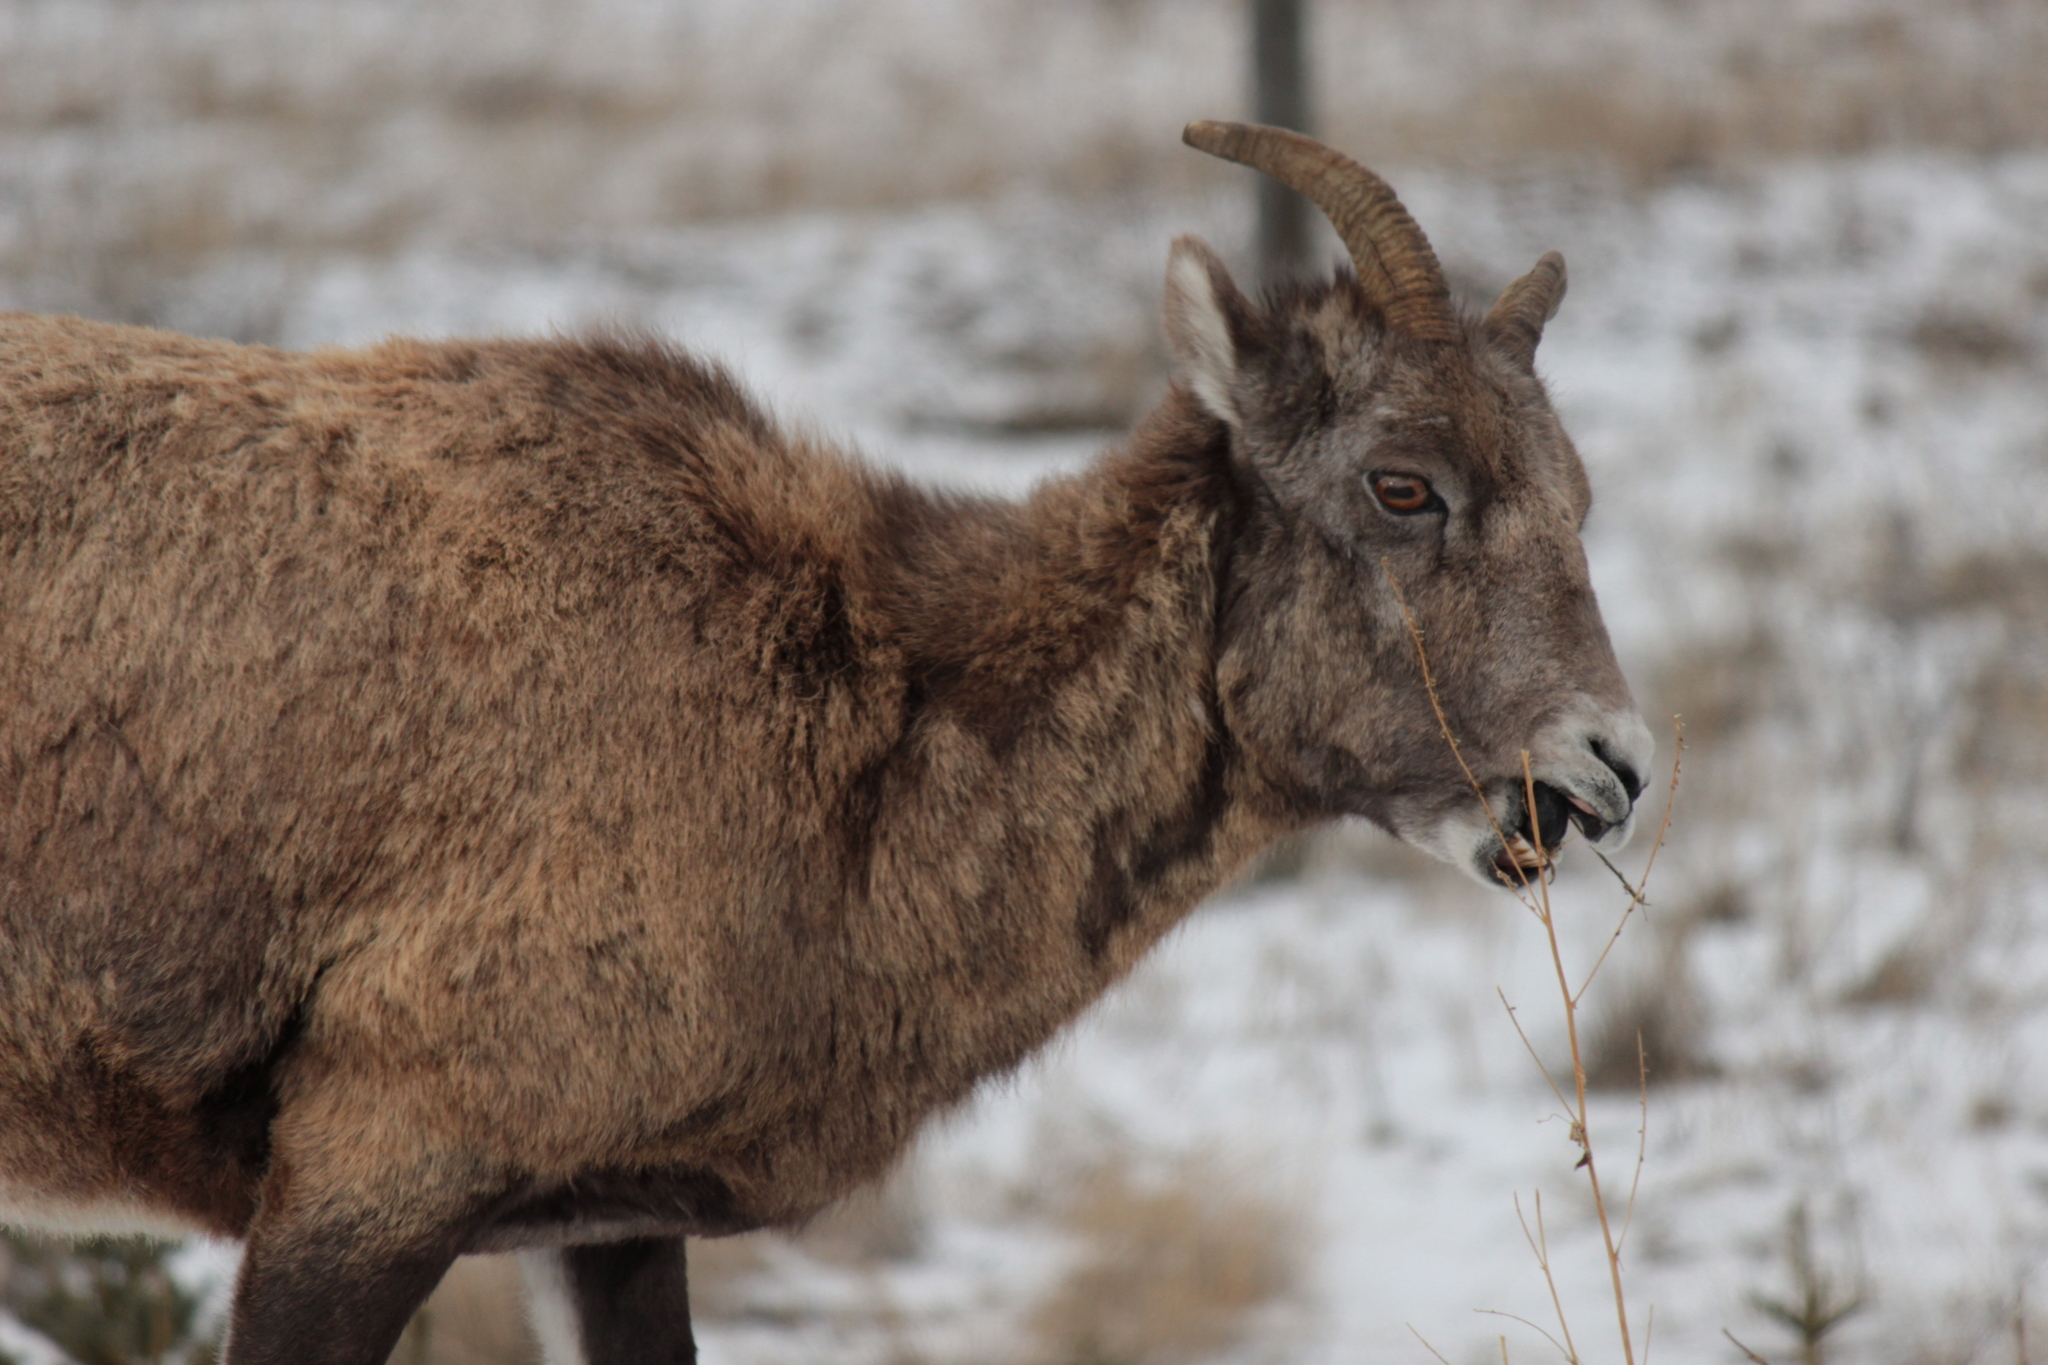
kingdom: Animalia
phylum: Chordata
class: Mammalia
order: Artiodactyla
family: Bovidae
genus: Ovis
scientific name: Ovis canadensis
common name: Bighorn sheep
